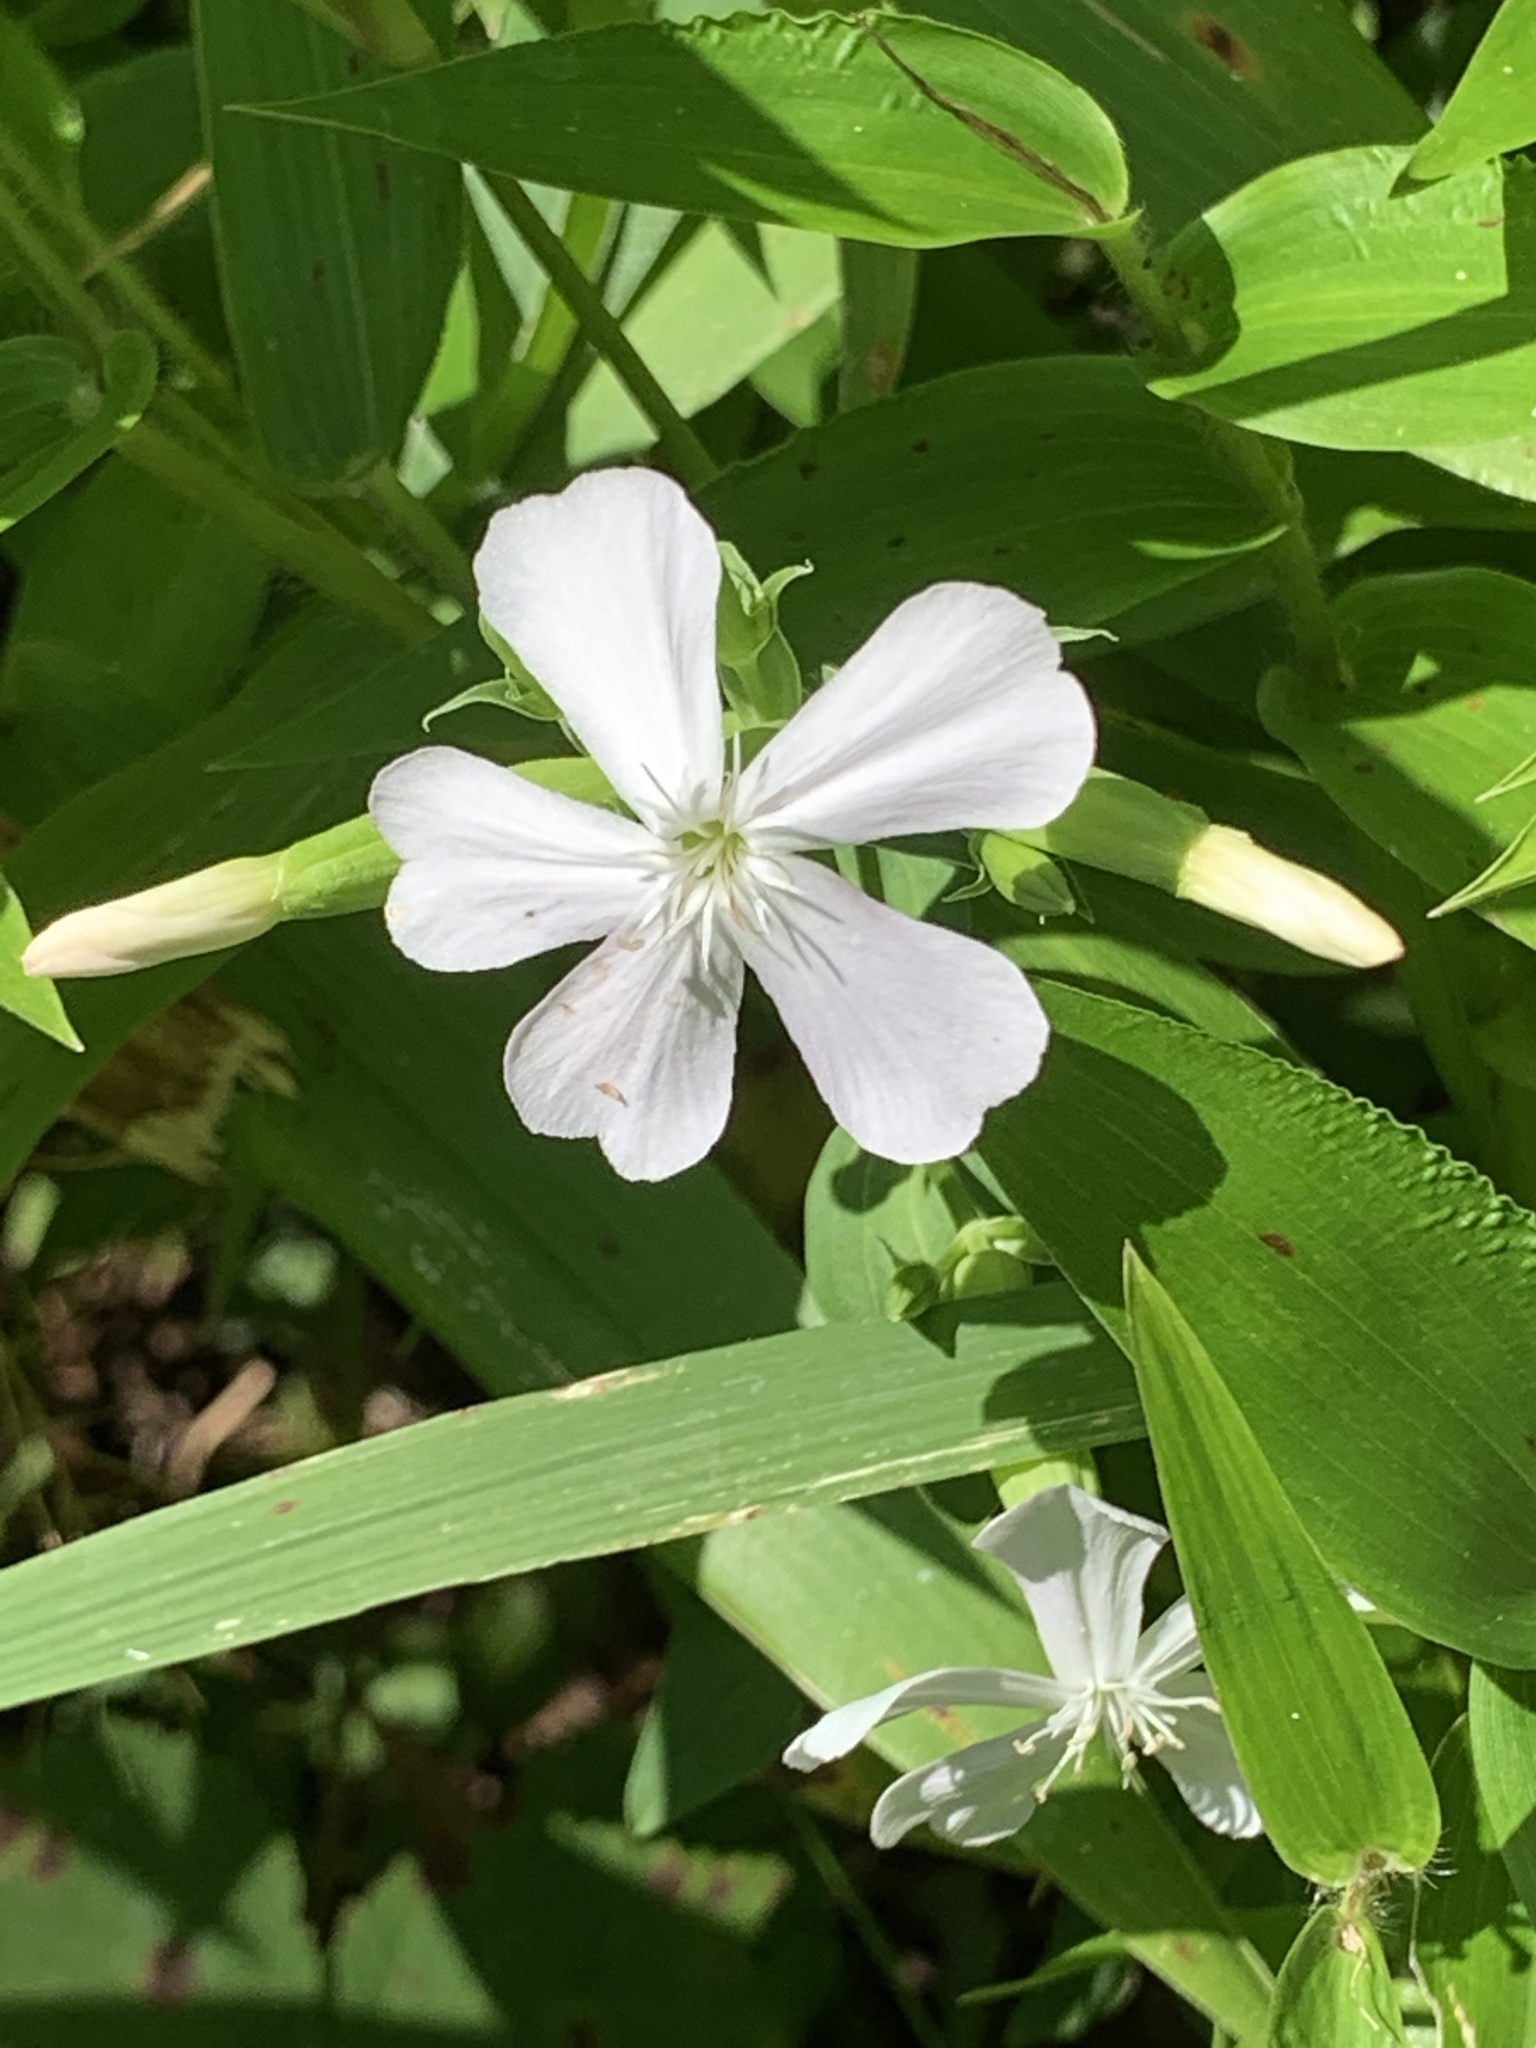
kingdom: Plantae
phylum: Tracheophyta
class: Magnoliopsida
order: Caryophyllales
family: Caryophyllaceae
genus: Saponaria
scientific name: Saponaria officinalis
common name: Soapwort
